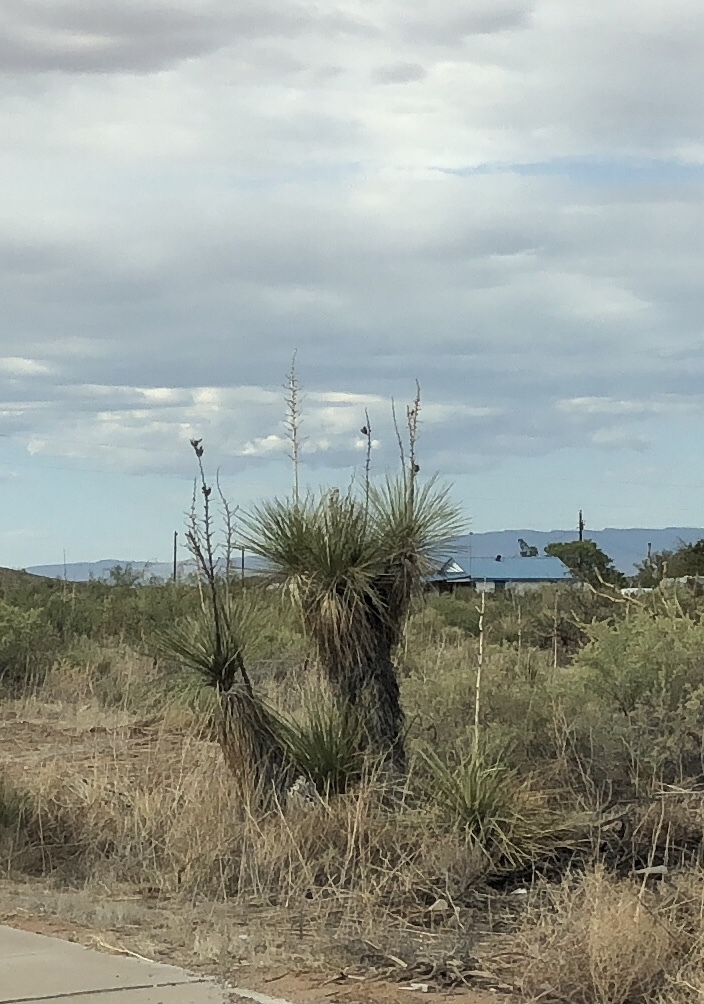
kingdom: Plantae
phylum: Tracheophyta
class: Liliopsida
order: Asparagales
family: Asparagaceae
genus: Yucca
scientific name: Yucca elata
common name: Palmella
